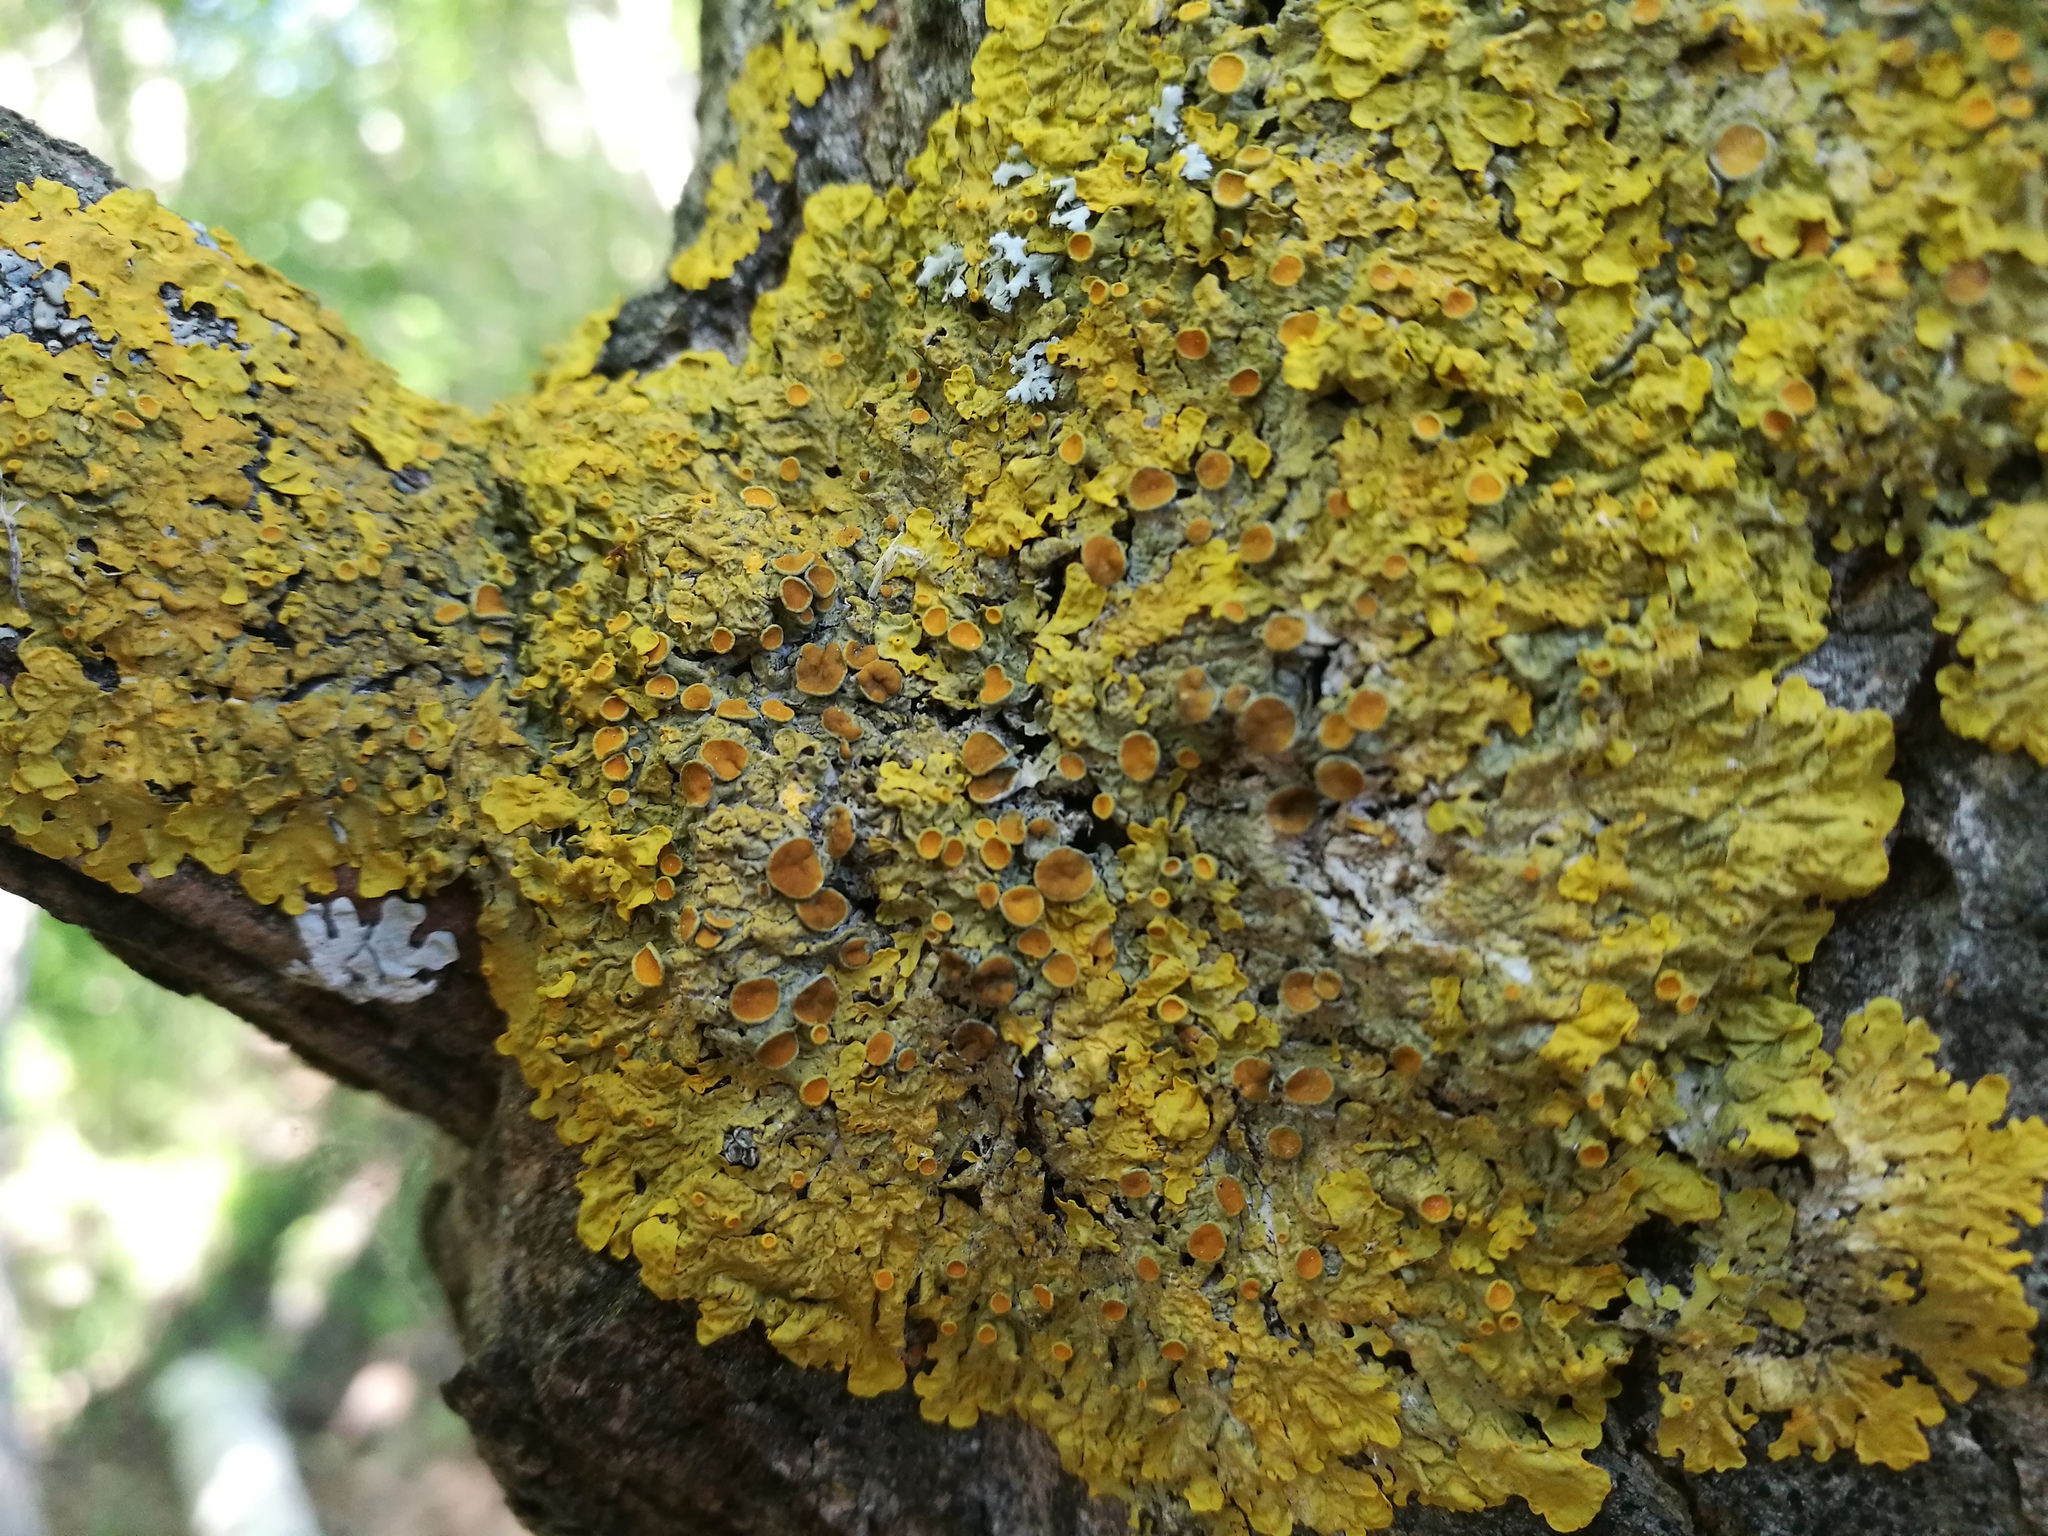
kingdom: Fungi
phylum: Ascomycota
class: Lecanoromycetes
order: Teloschistales
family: Teloschistaceae
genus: Xanthoria
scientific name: Xanthoria parietina
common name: Common orange lichen
